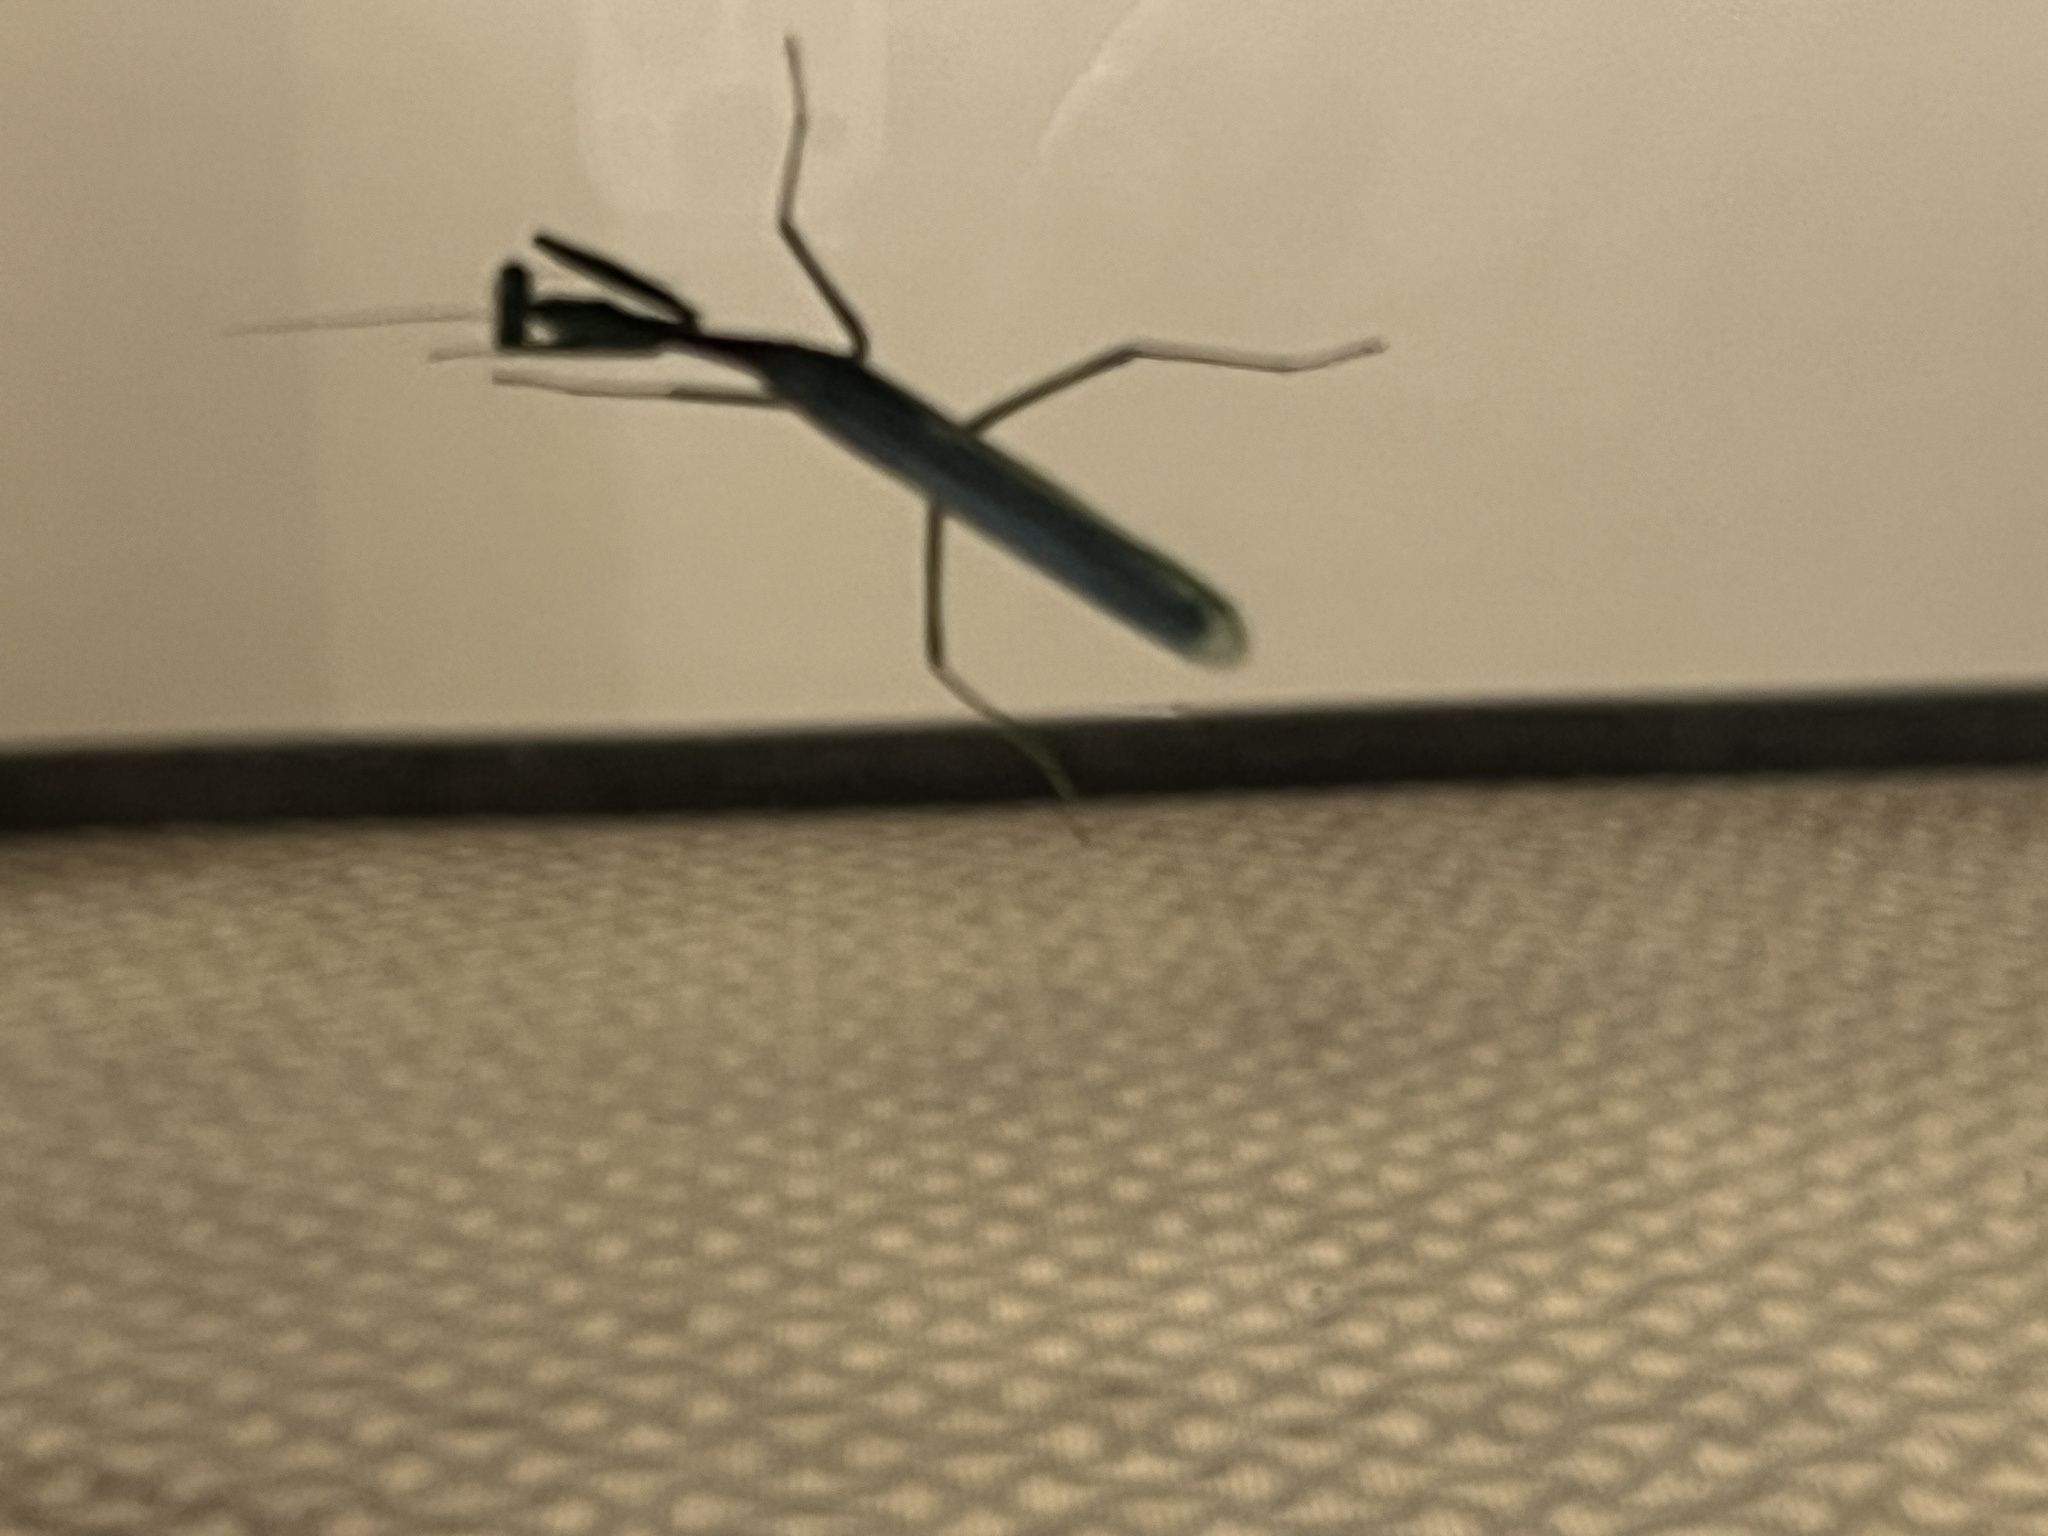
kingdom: Animalia
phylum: Arthropoda
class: Insecta
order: Mantodea
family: Mantidae
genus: Stagmomantis
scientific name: Stagmomantis limbata
